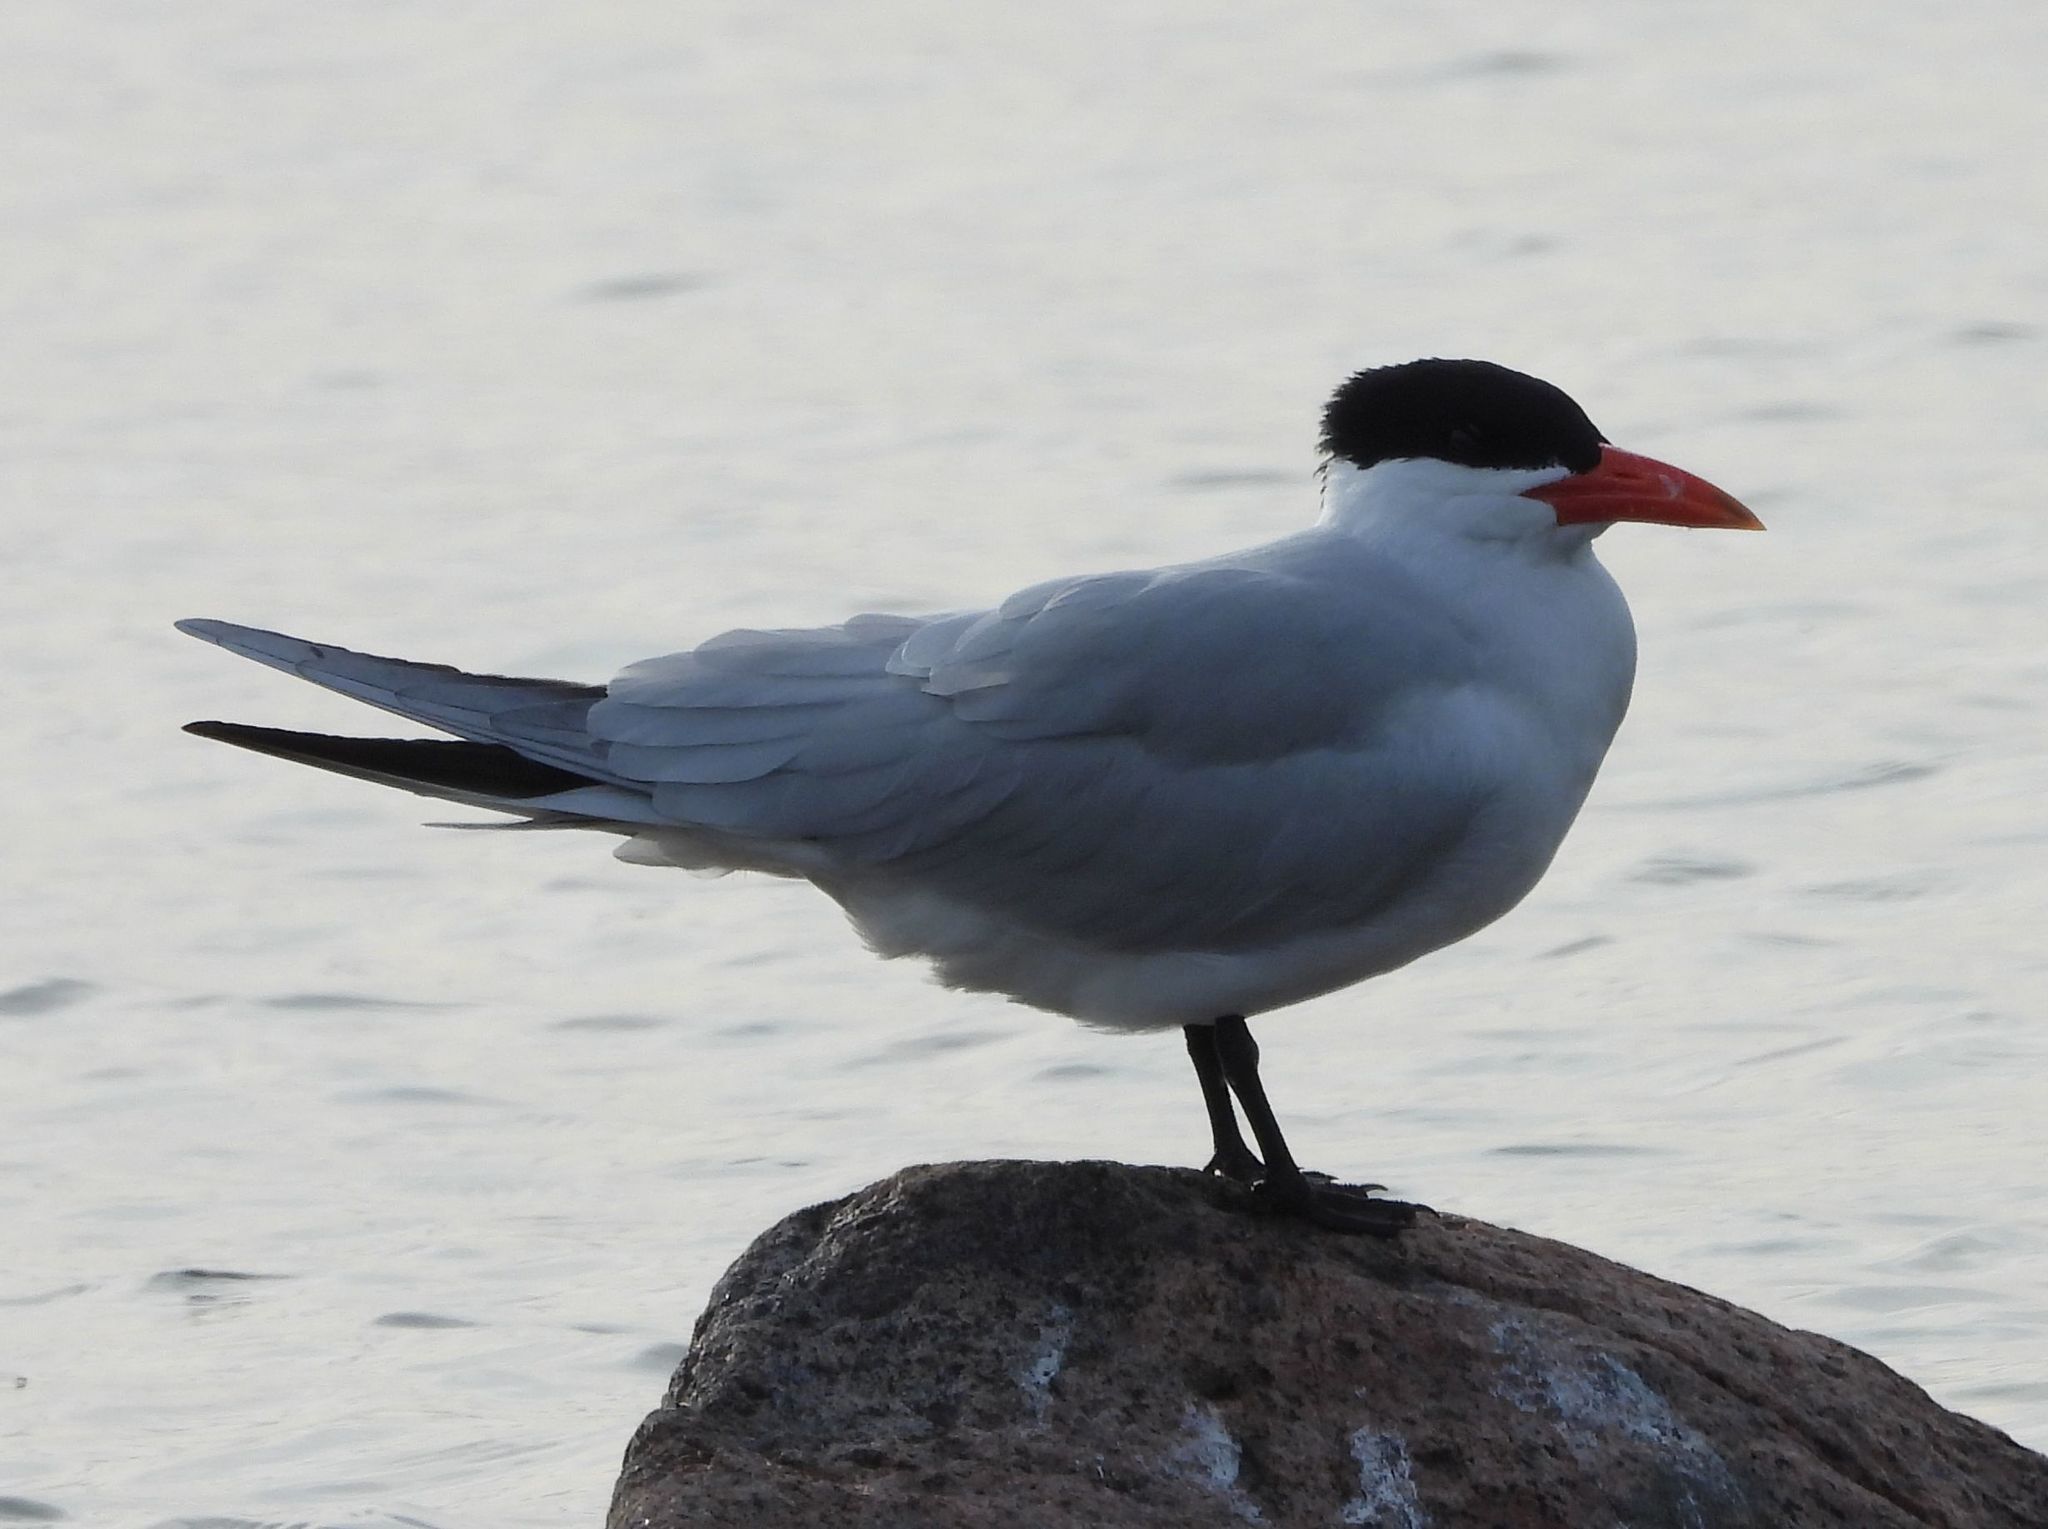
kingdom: Animalia
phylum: Chordata
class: Aves
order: Charadriiformes
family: Laridae
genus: Hydroprogne
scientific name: Hydroprogne caspia
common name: Caspian tern
